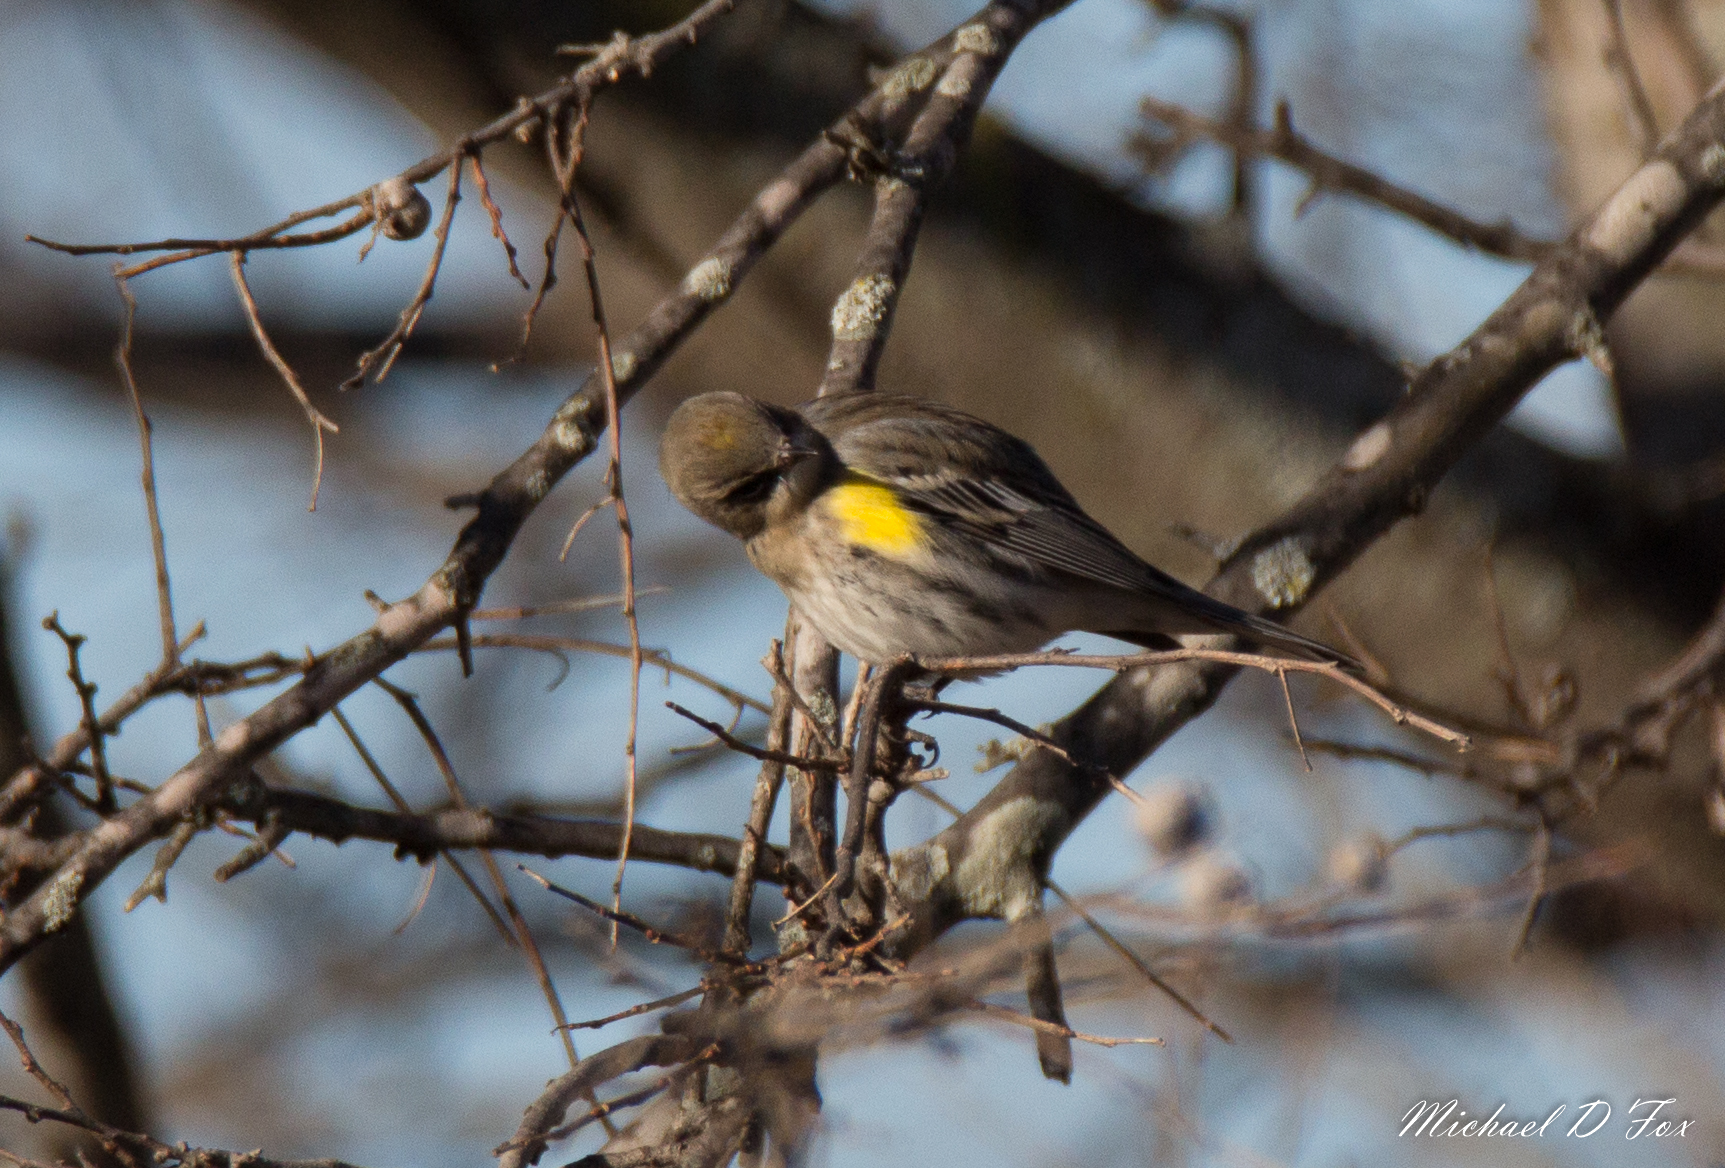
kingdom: Animalia
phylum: Chordata
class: Aves
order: Passeriformes
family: Parulidae
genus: Setophaga
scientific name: Setophaga coronata
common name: Myrtle warbler
